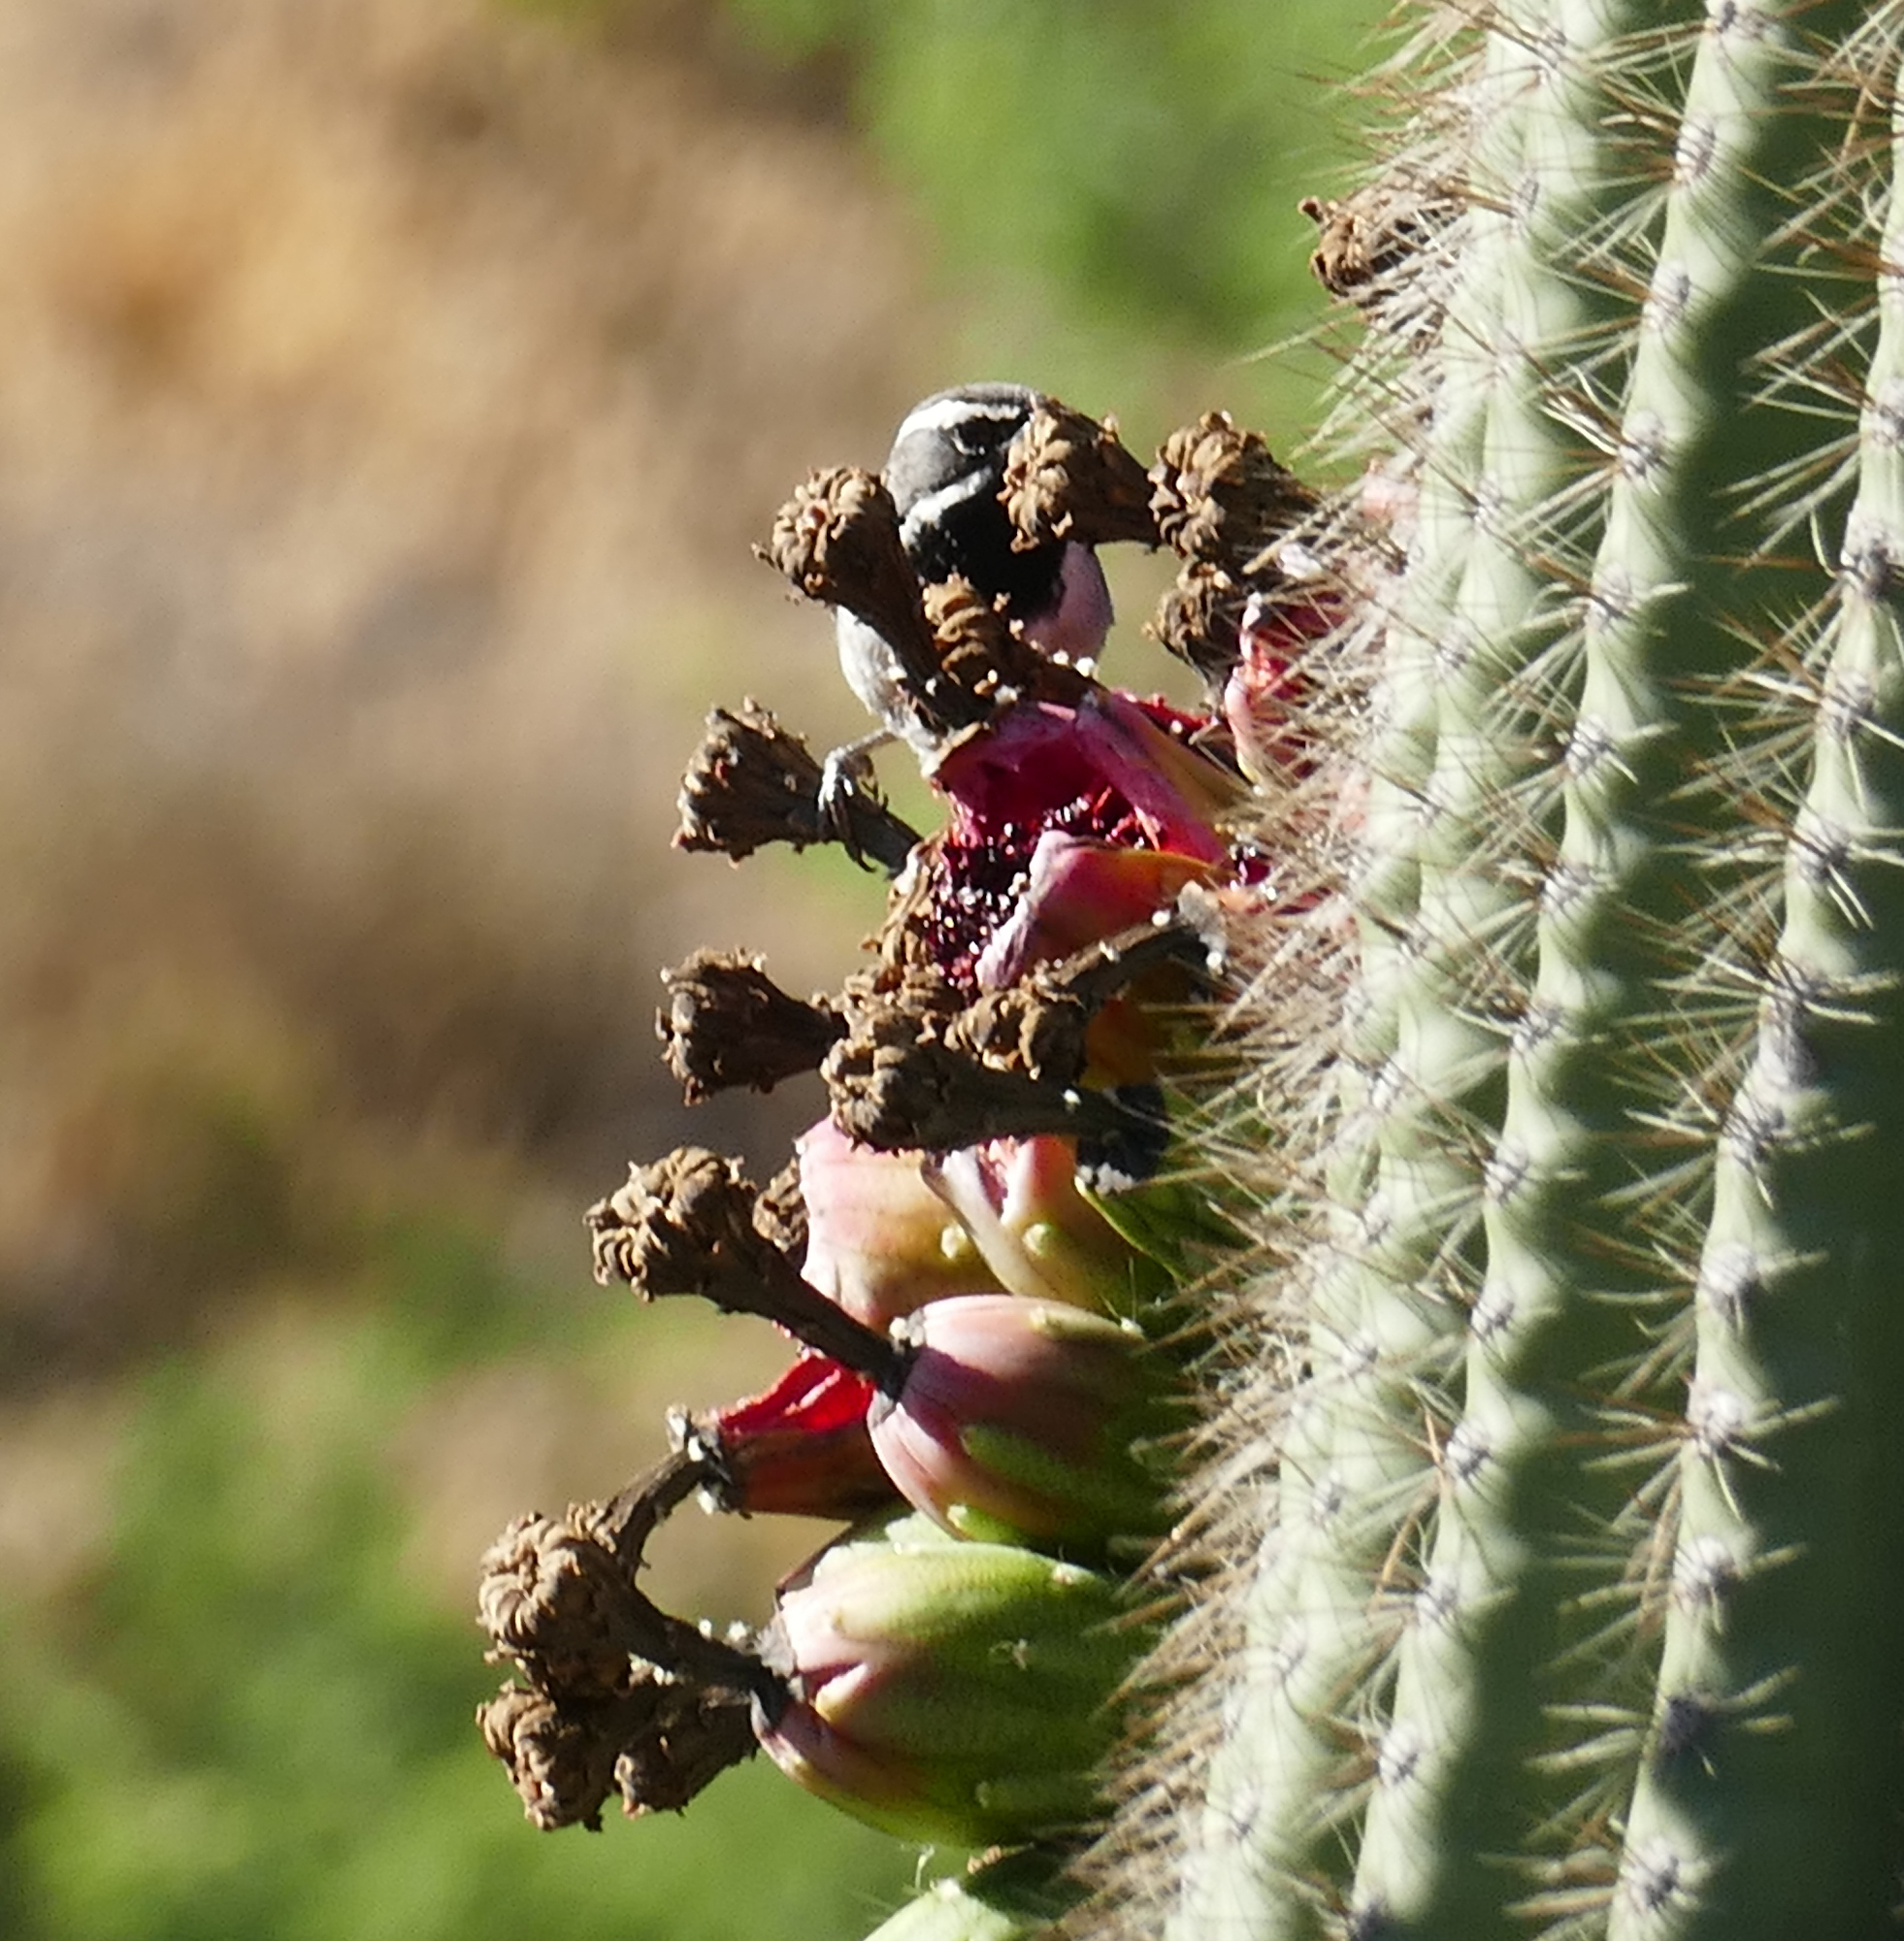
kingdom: Animalia
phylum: Chordata
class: Aves
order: Passeriformes
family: Passerellidae
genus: Amphispiza
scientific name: Amphispiza bilineata
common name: Black-throated sparrow
